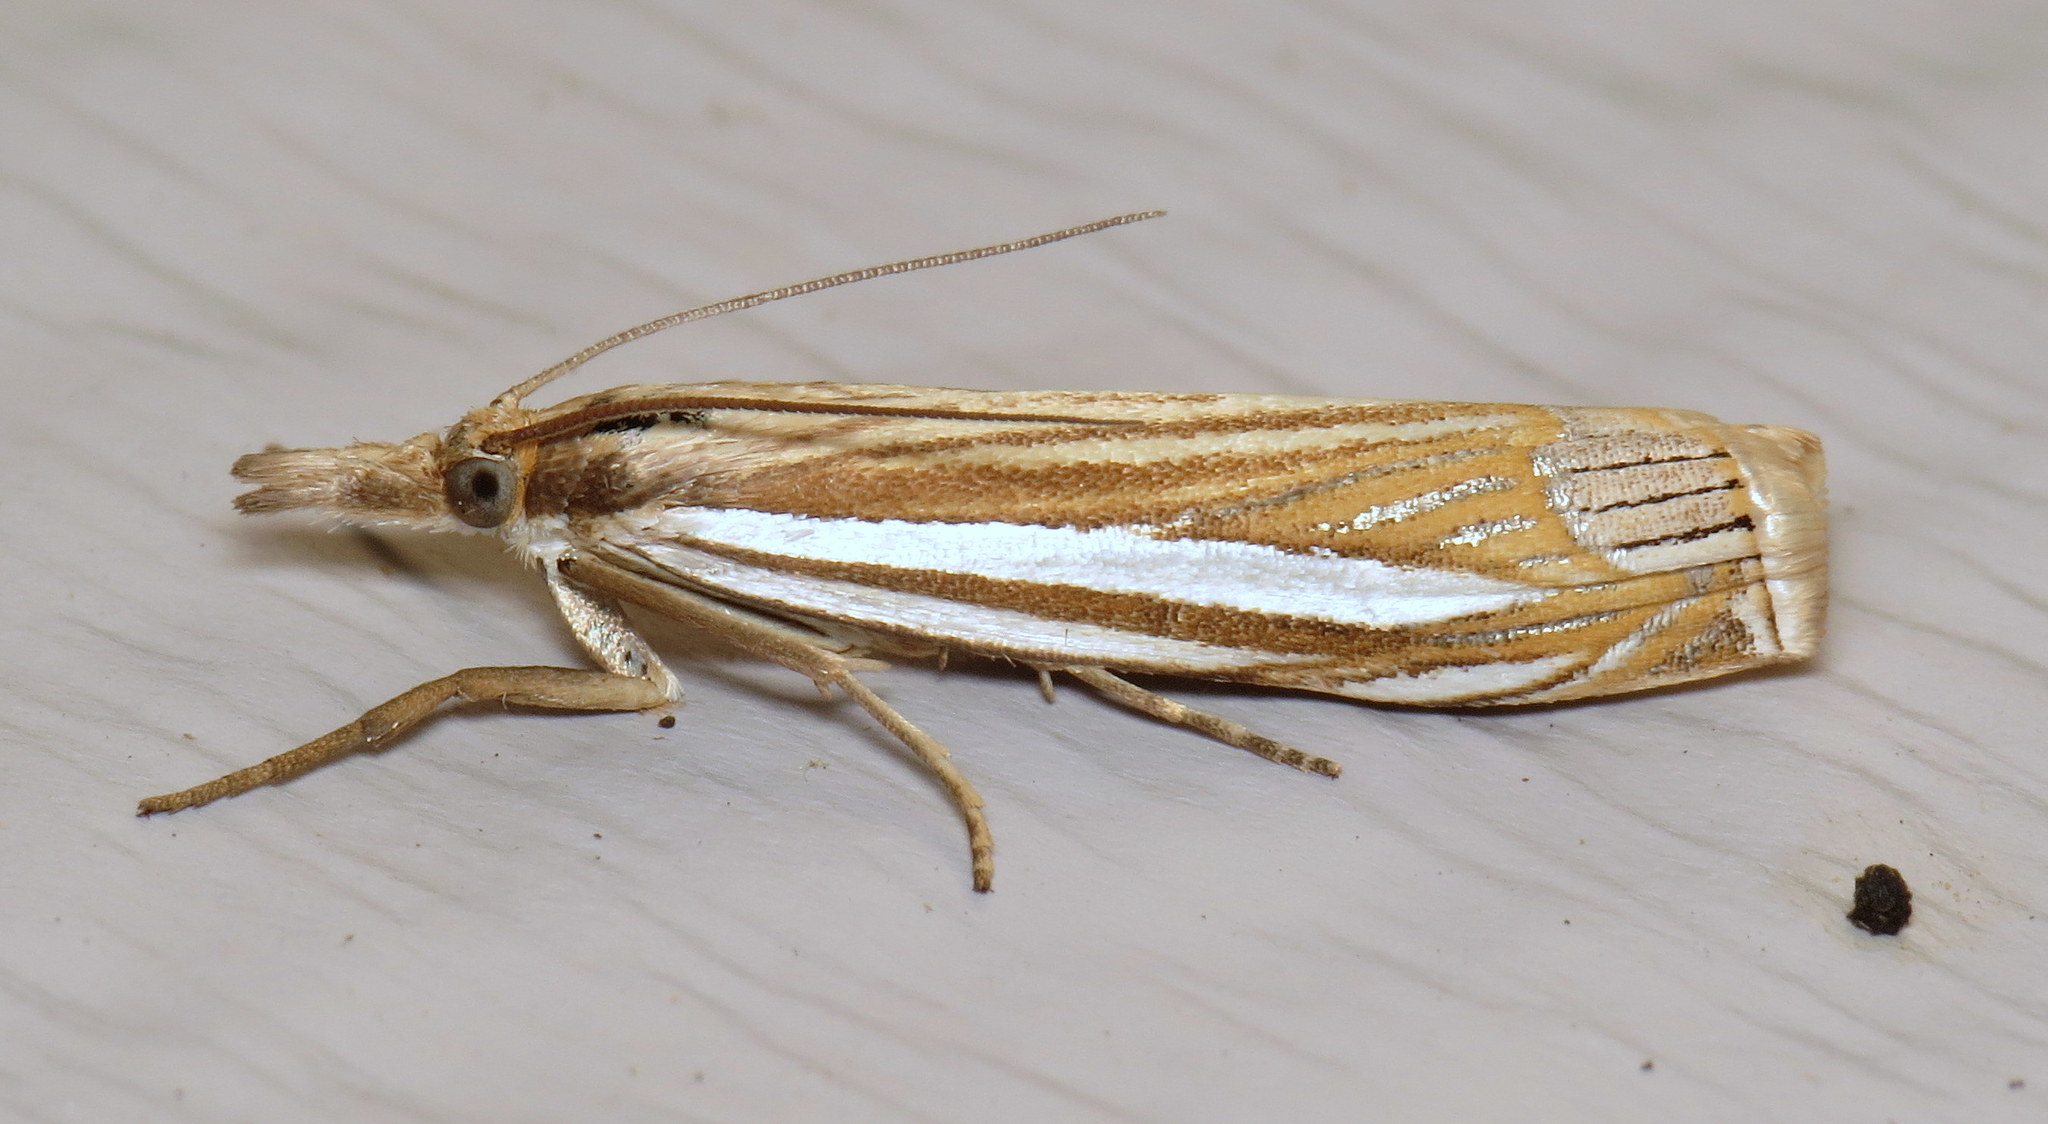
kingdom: Animalia
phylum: Arthropoda
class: Insecta
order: Lepidoptera
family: Crambidae
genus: Crambus
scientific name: Crambus laqueatellus
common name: Eastern grass-veneer
